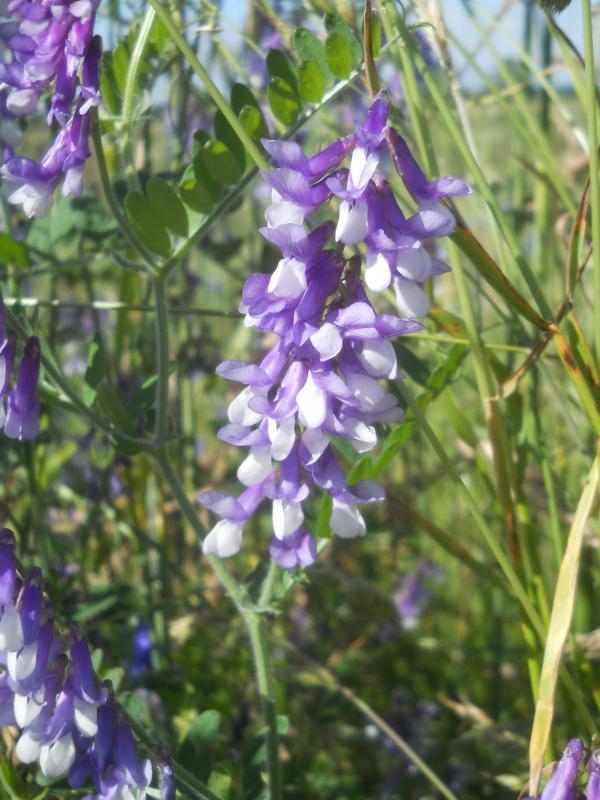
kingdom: Plantae
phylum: Tracheophyta
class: Magnoliopsida
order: Fabales
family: Fabaceae
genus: Vicia
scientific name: Vicia villosa
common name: Fodder vetch
